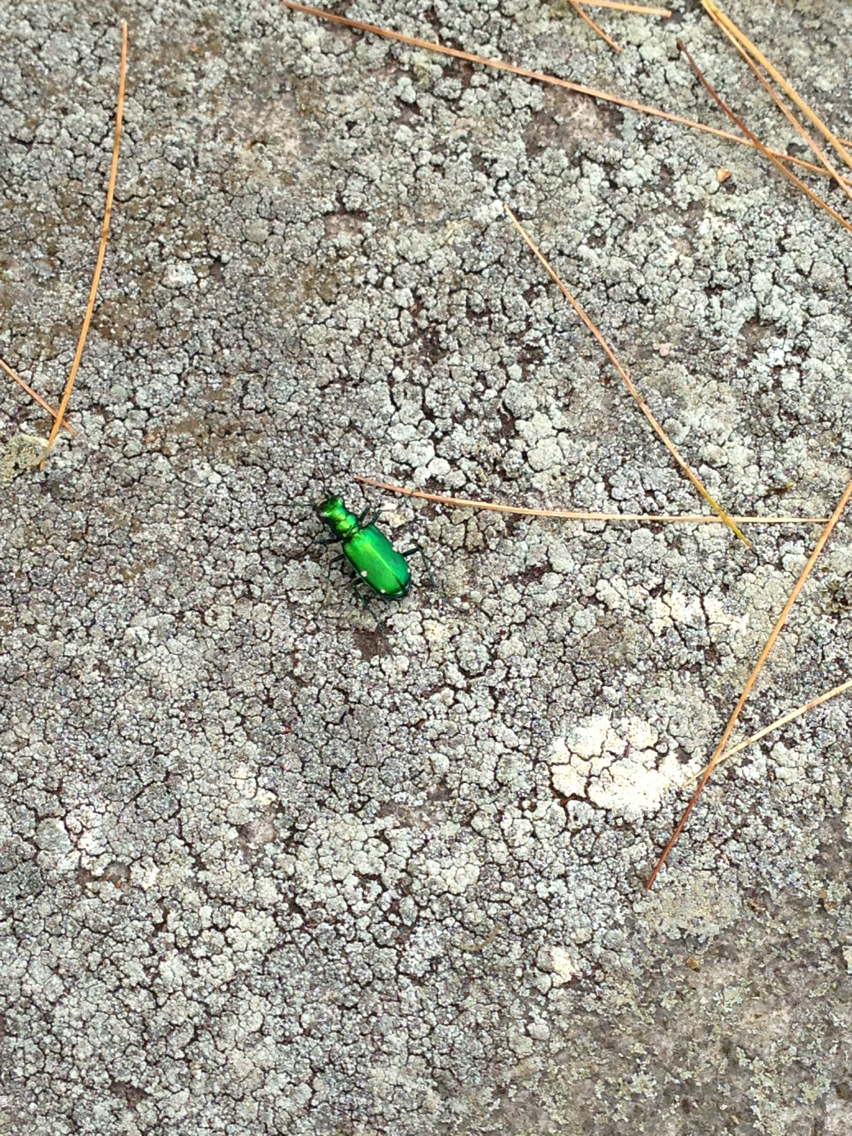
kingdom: Animalia
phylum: Arthropoda
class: Insecta
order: Coleoptera
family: Carabidae
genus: Cicindela
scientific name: Cicindela sexguttata
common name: Six-spotted tiger beetle
